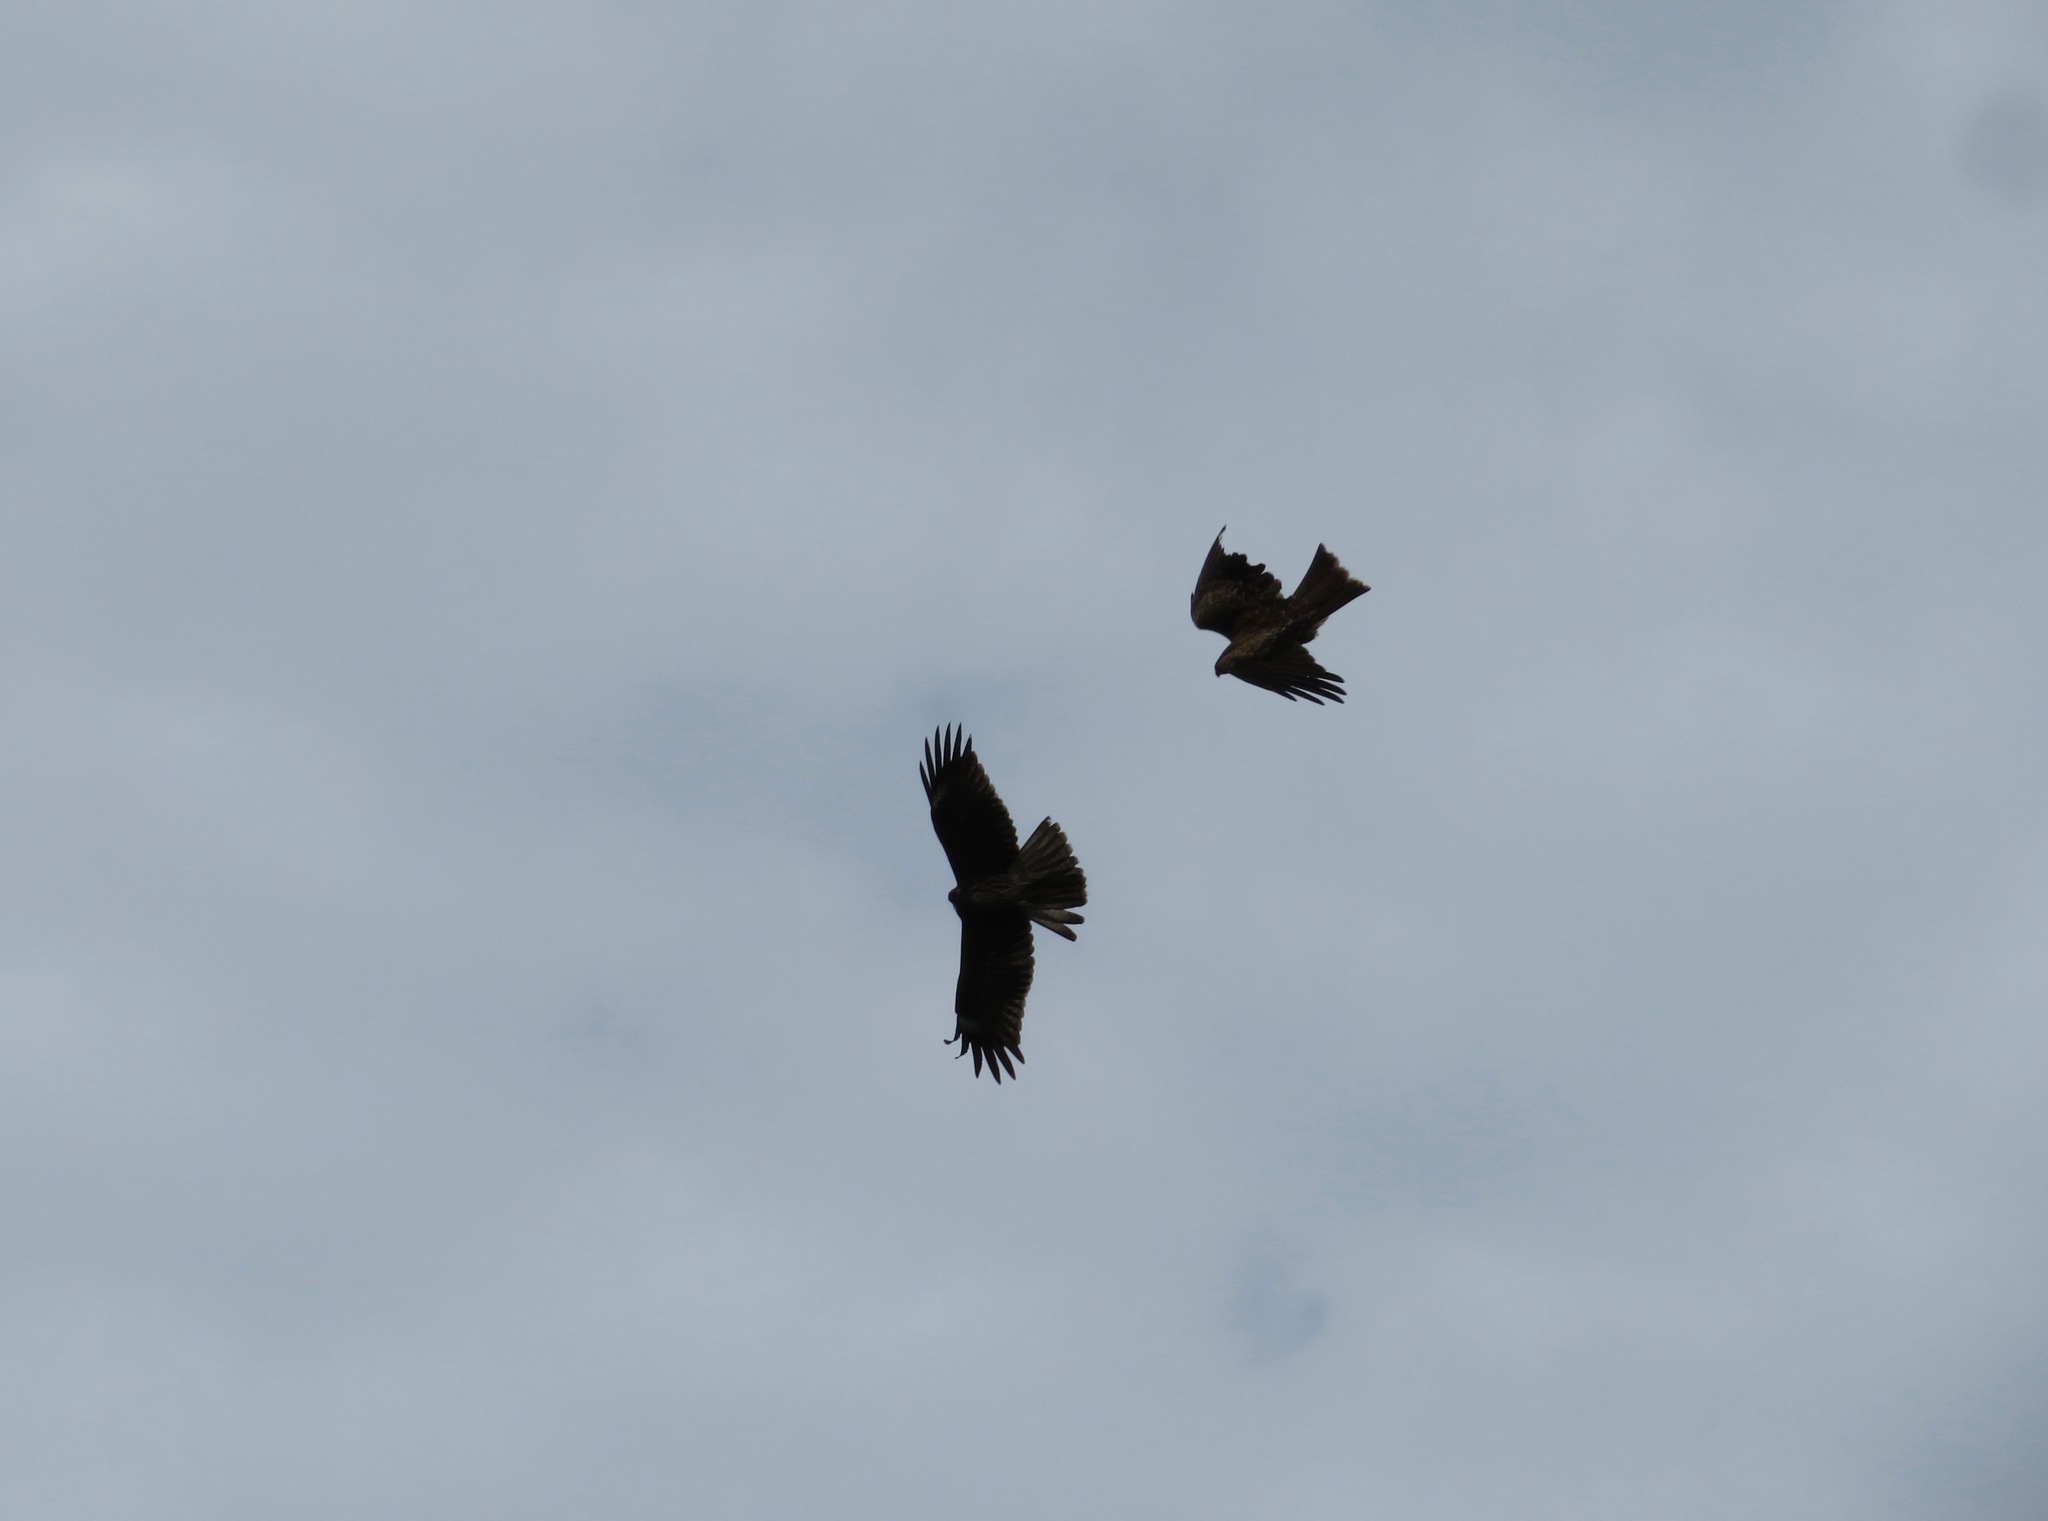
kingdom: Animalia
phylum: Chordata
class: Aves
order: Accipitriformes
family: Accipitridae
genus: Milvus
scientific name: Milvus migrans
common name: Black kite
